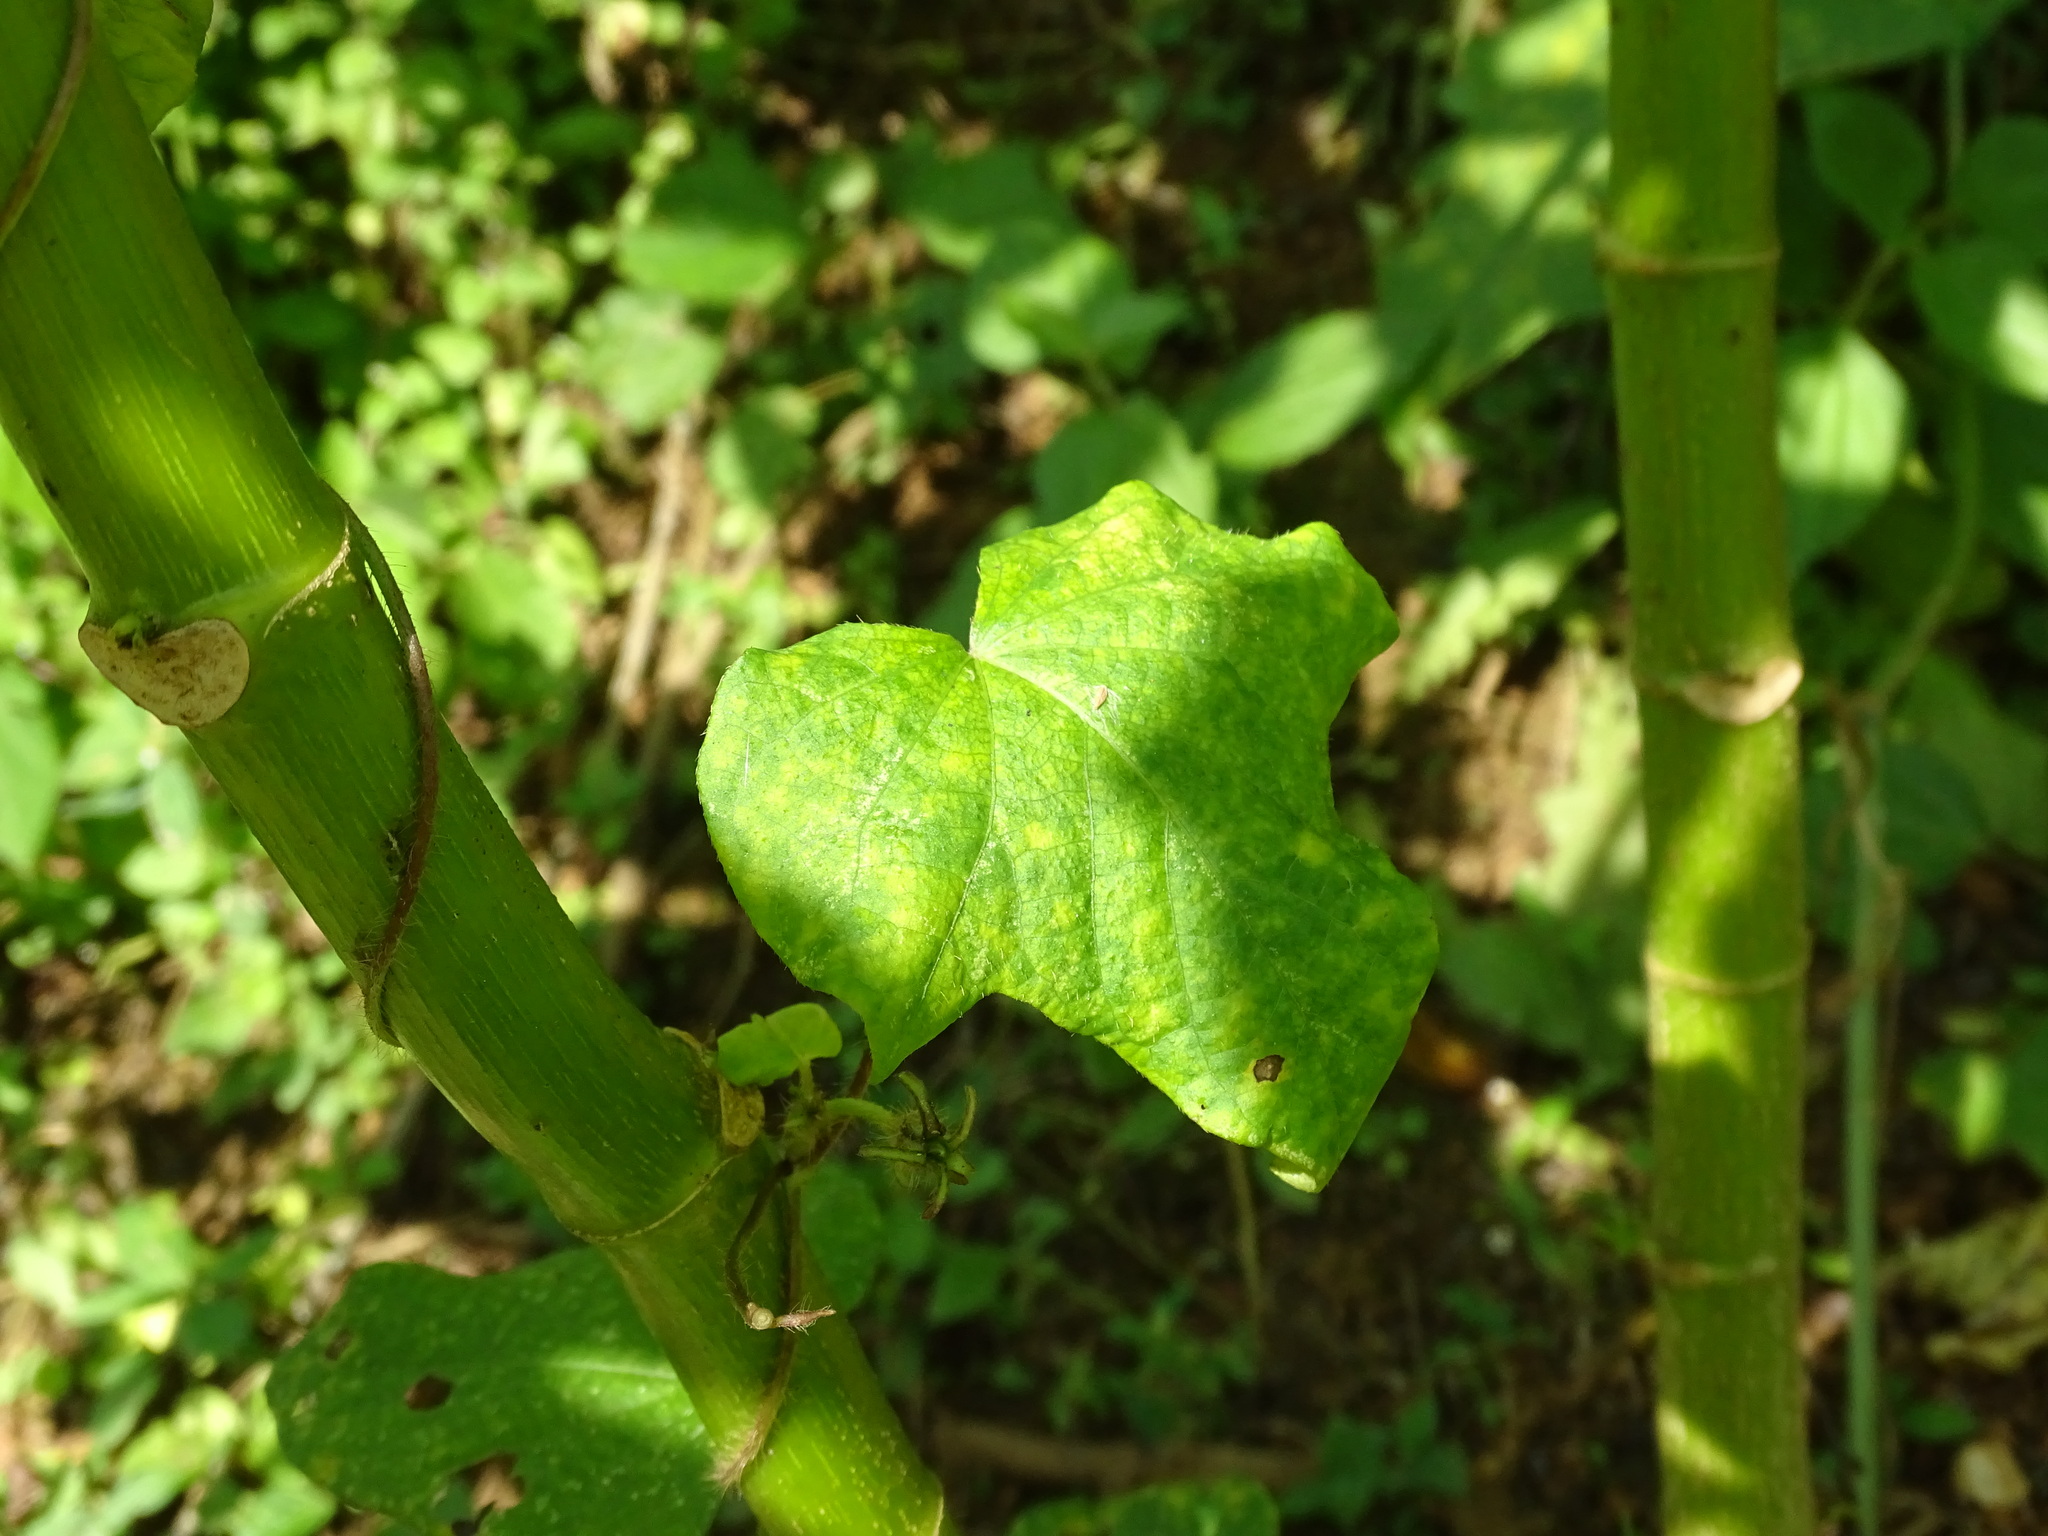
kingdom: Plantae
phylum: Tracheophyta
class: Magnoliopsida
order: Solanales
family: Convolvulaceae
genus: Ipomoea
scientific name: Ipomoea hederacea
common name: Ivy-leaved morning-glory
